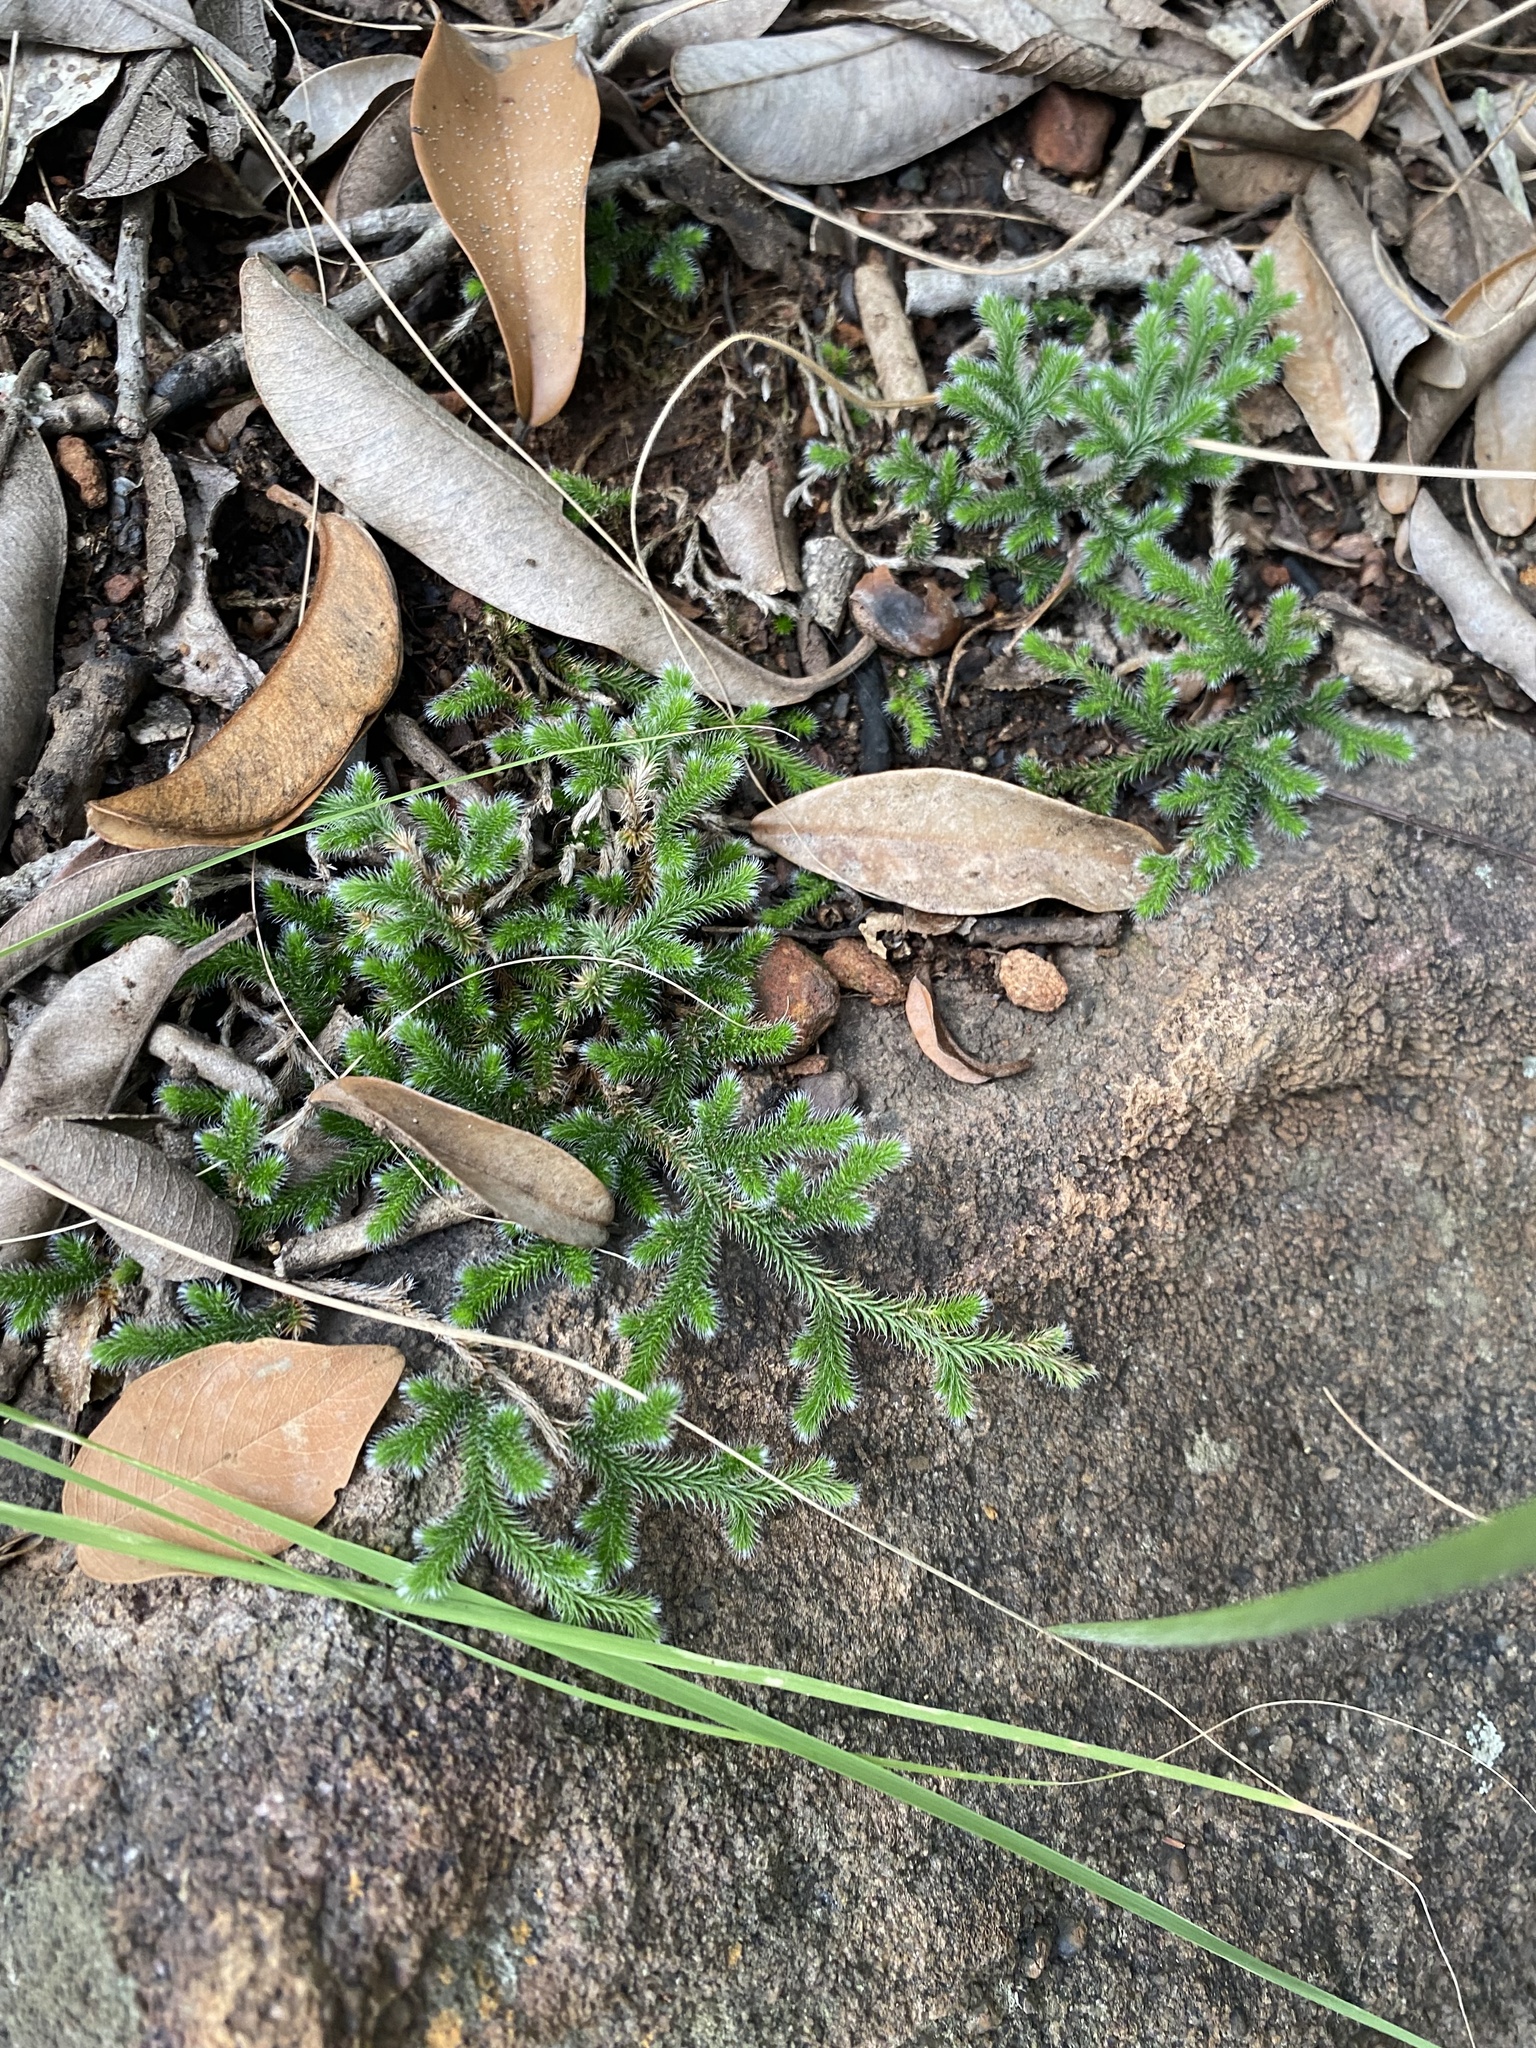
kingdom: Plantae
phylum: Tracheophyta
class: Lycopodiopsida
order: Selaginellales
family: Selaginellaceae
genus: Selaginella
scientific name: Selaginella dregei
